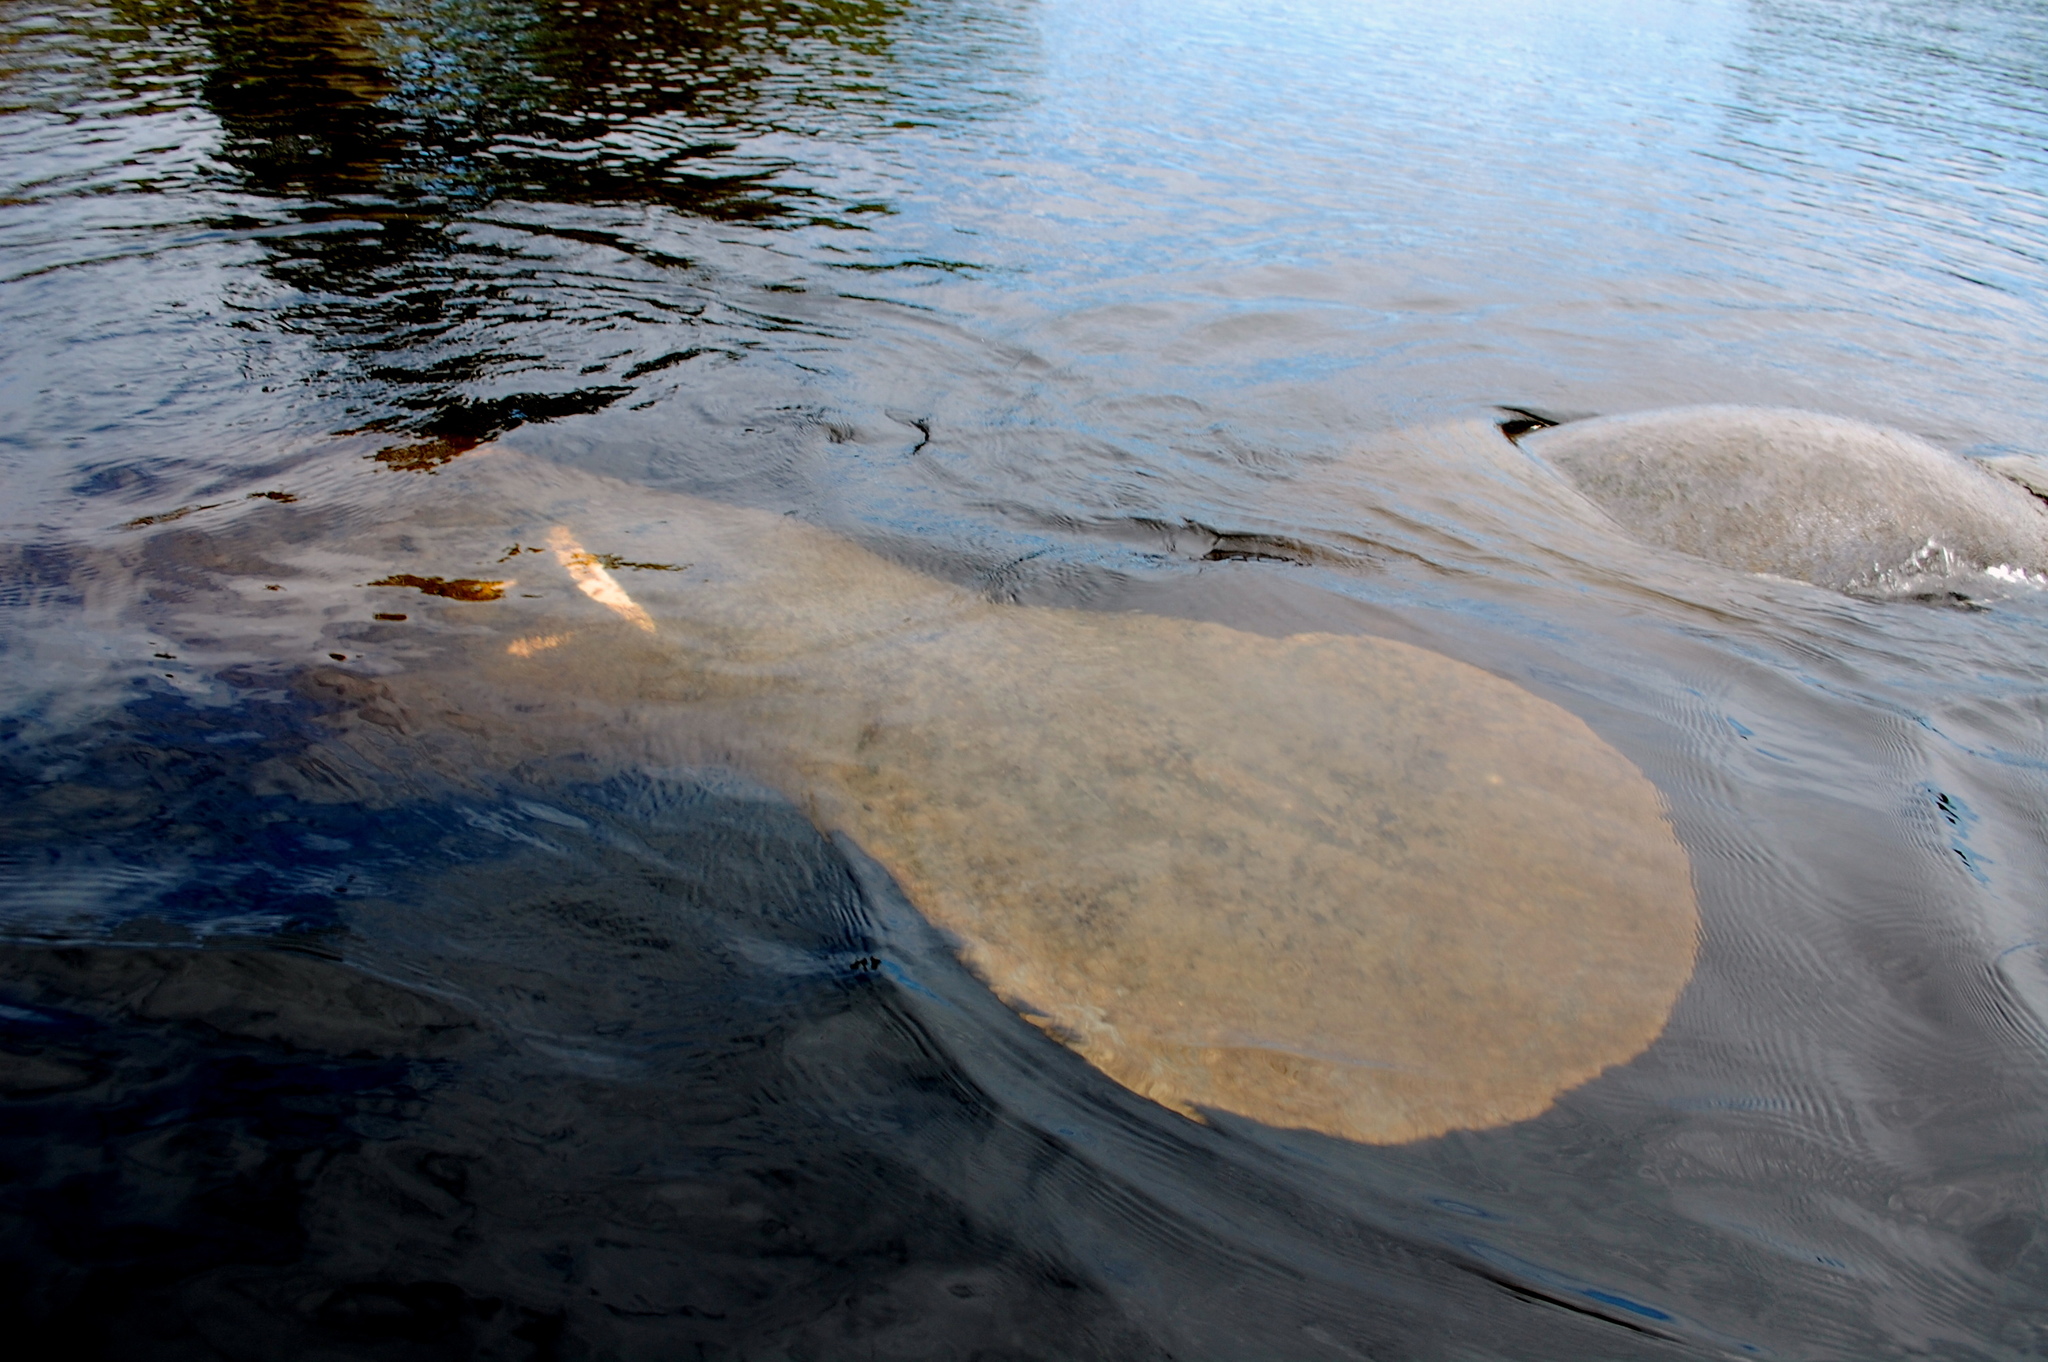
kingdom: Animalia
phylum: Chordata
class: Mammalia
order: Sirenia
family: Trichechidae
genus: Trichechus
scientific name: Trichechus manatus
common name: West indian manatee
